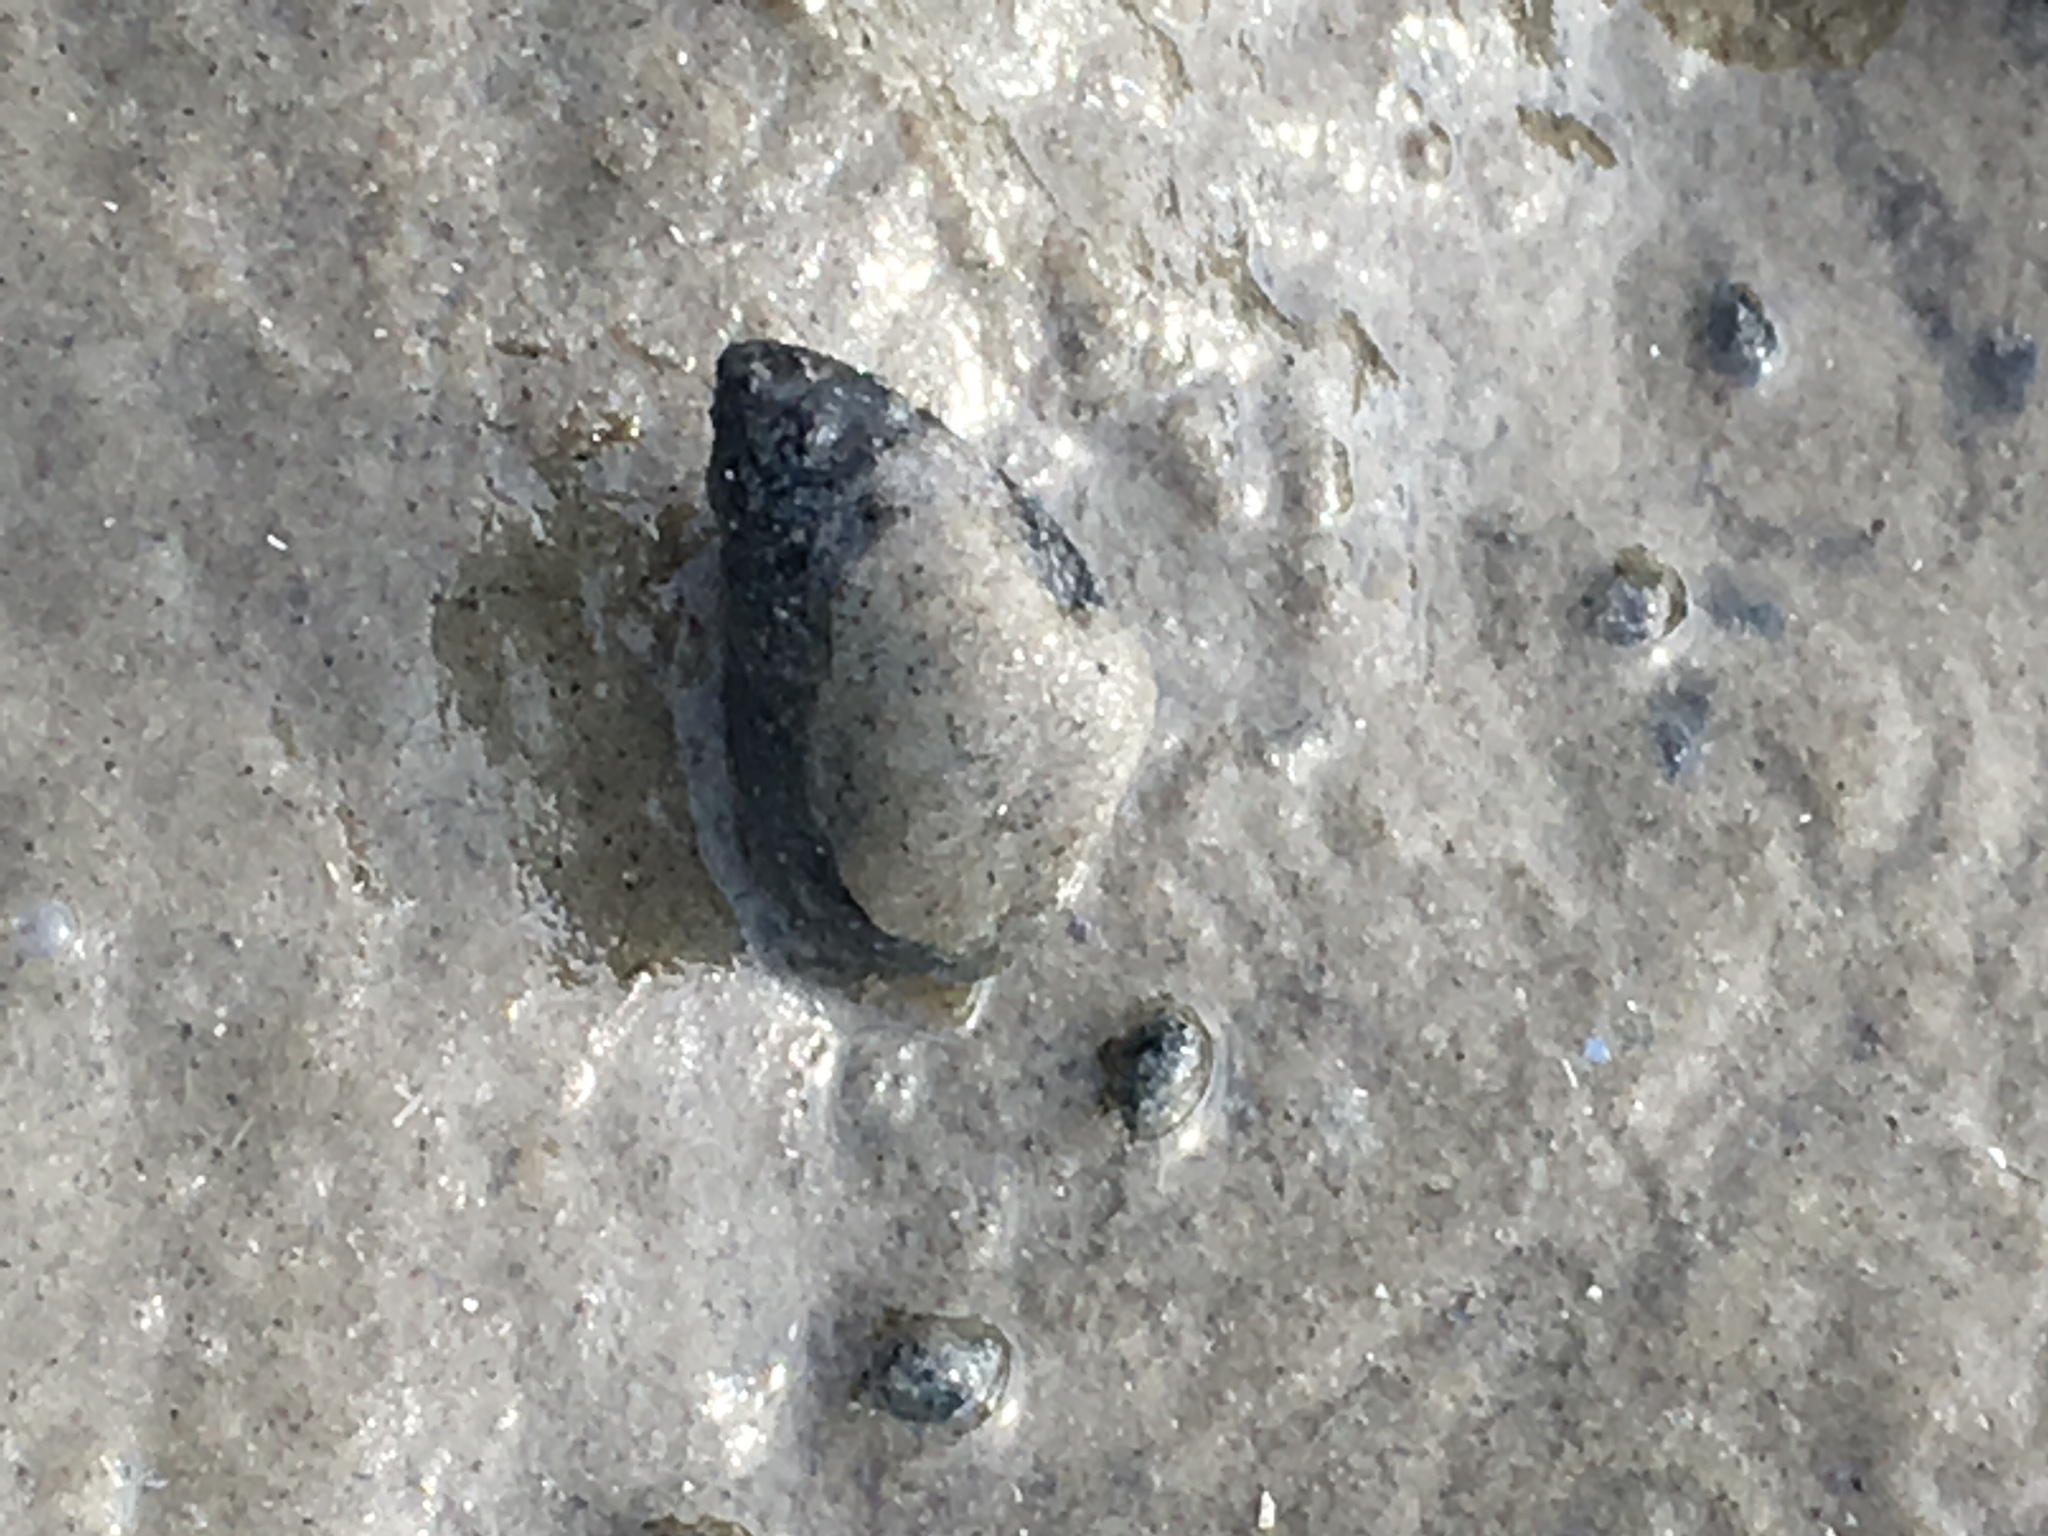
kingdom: Animalia
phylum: Mollusca
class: Gastropoda
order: Neogastropoda
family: Nassariidae
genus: Ilyanassa
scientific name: Ilyanassa obsoleta
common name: Eastern mudsnail
